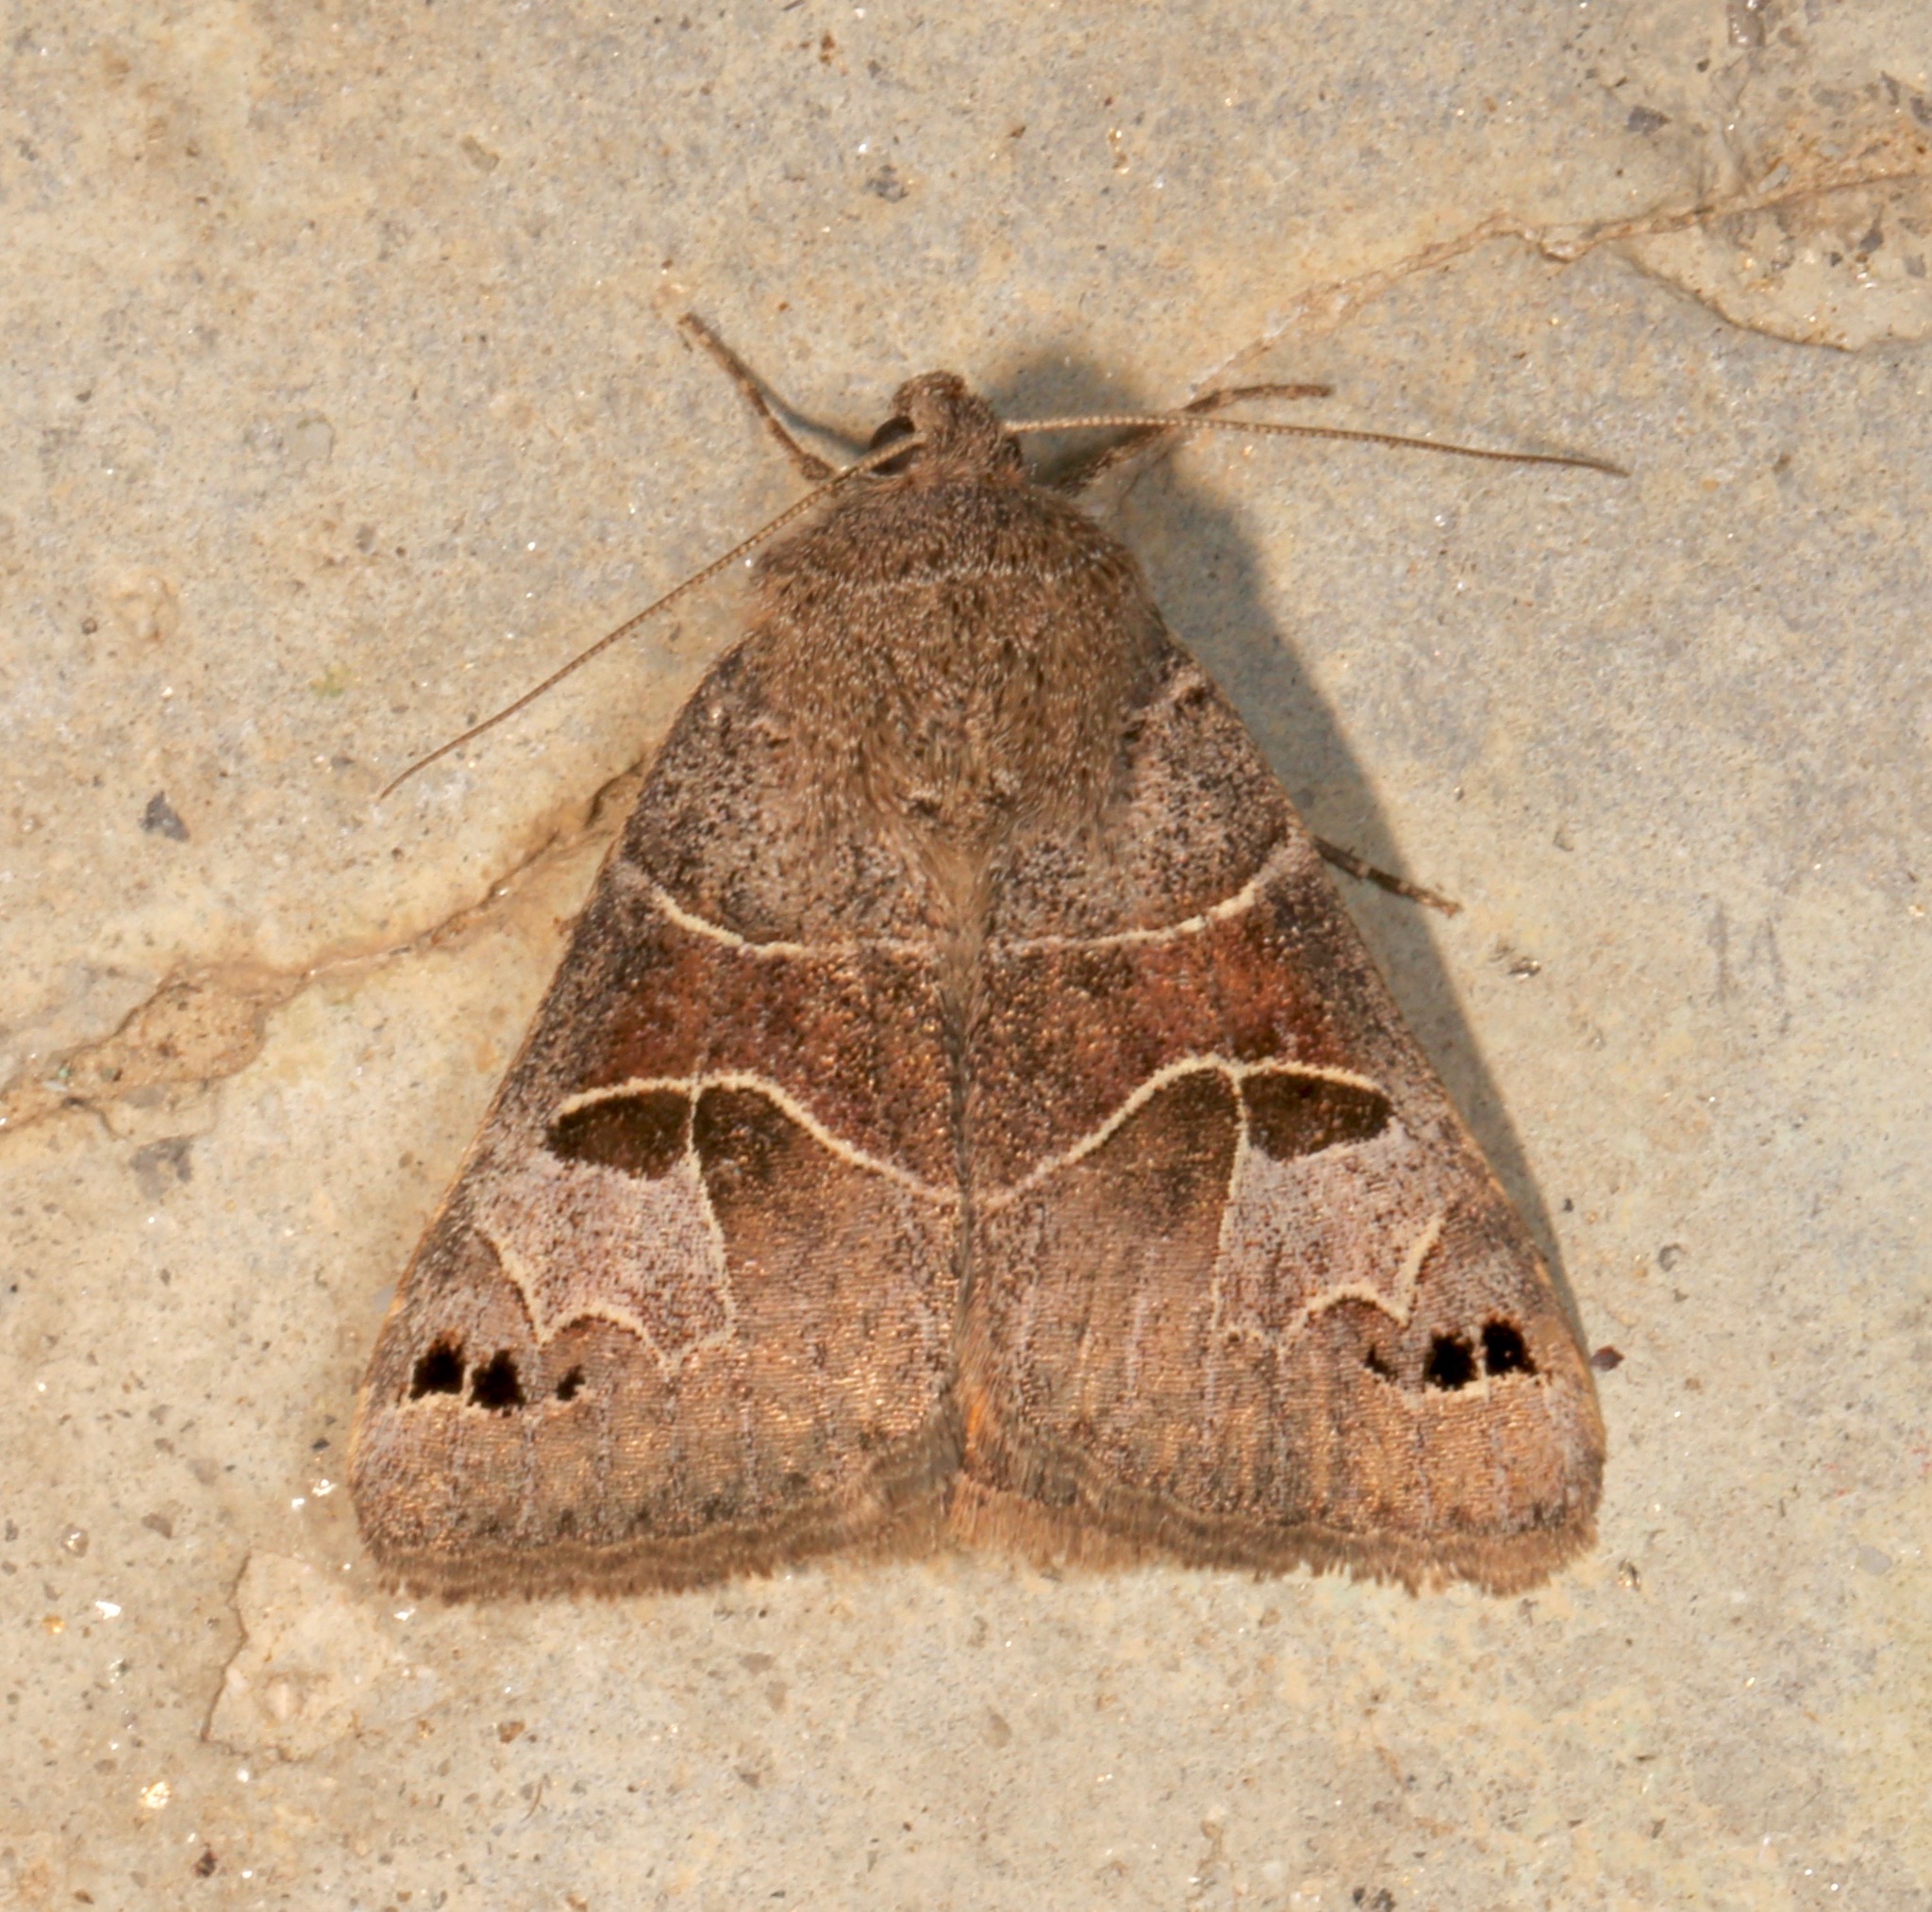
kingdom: Animalia
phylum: Arthropoda
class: Insecta
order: Lepidoptera
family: Erebidae
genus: Drasteria
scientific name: Drasteria edwardsii
